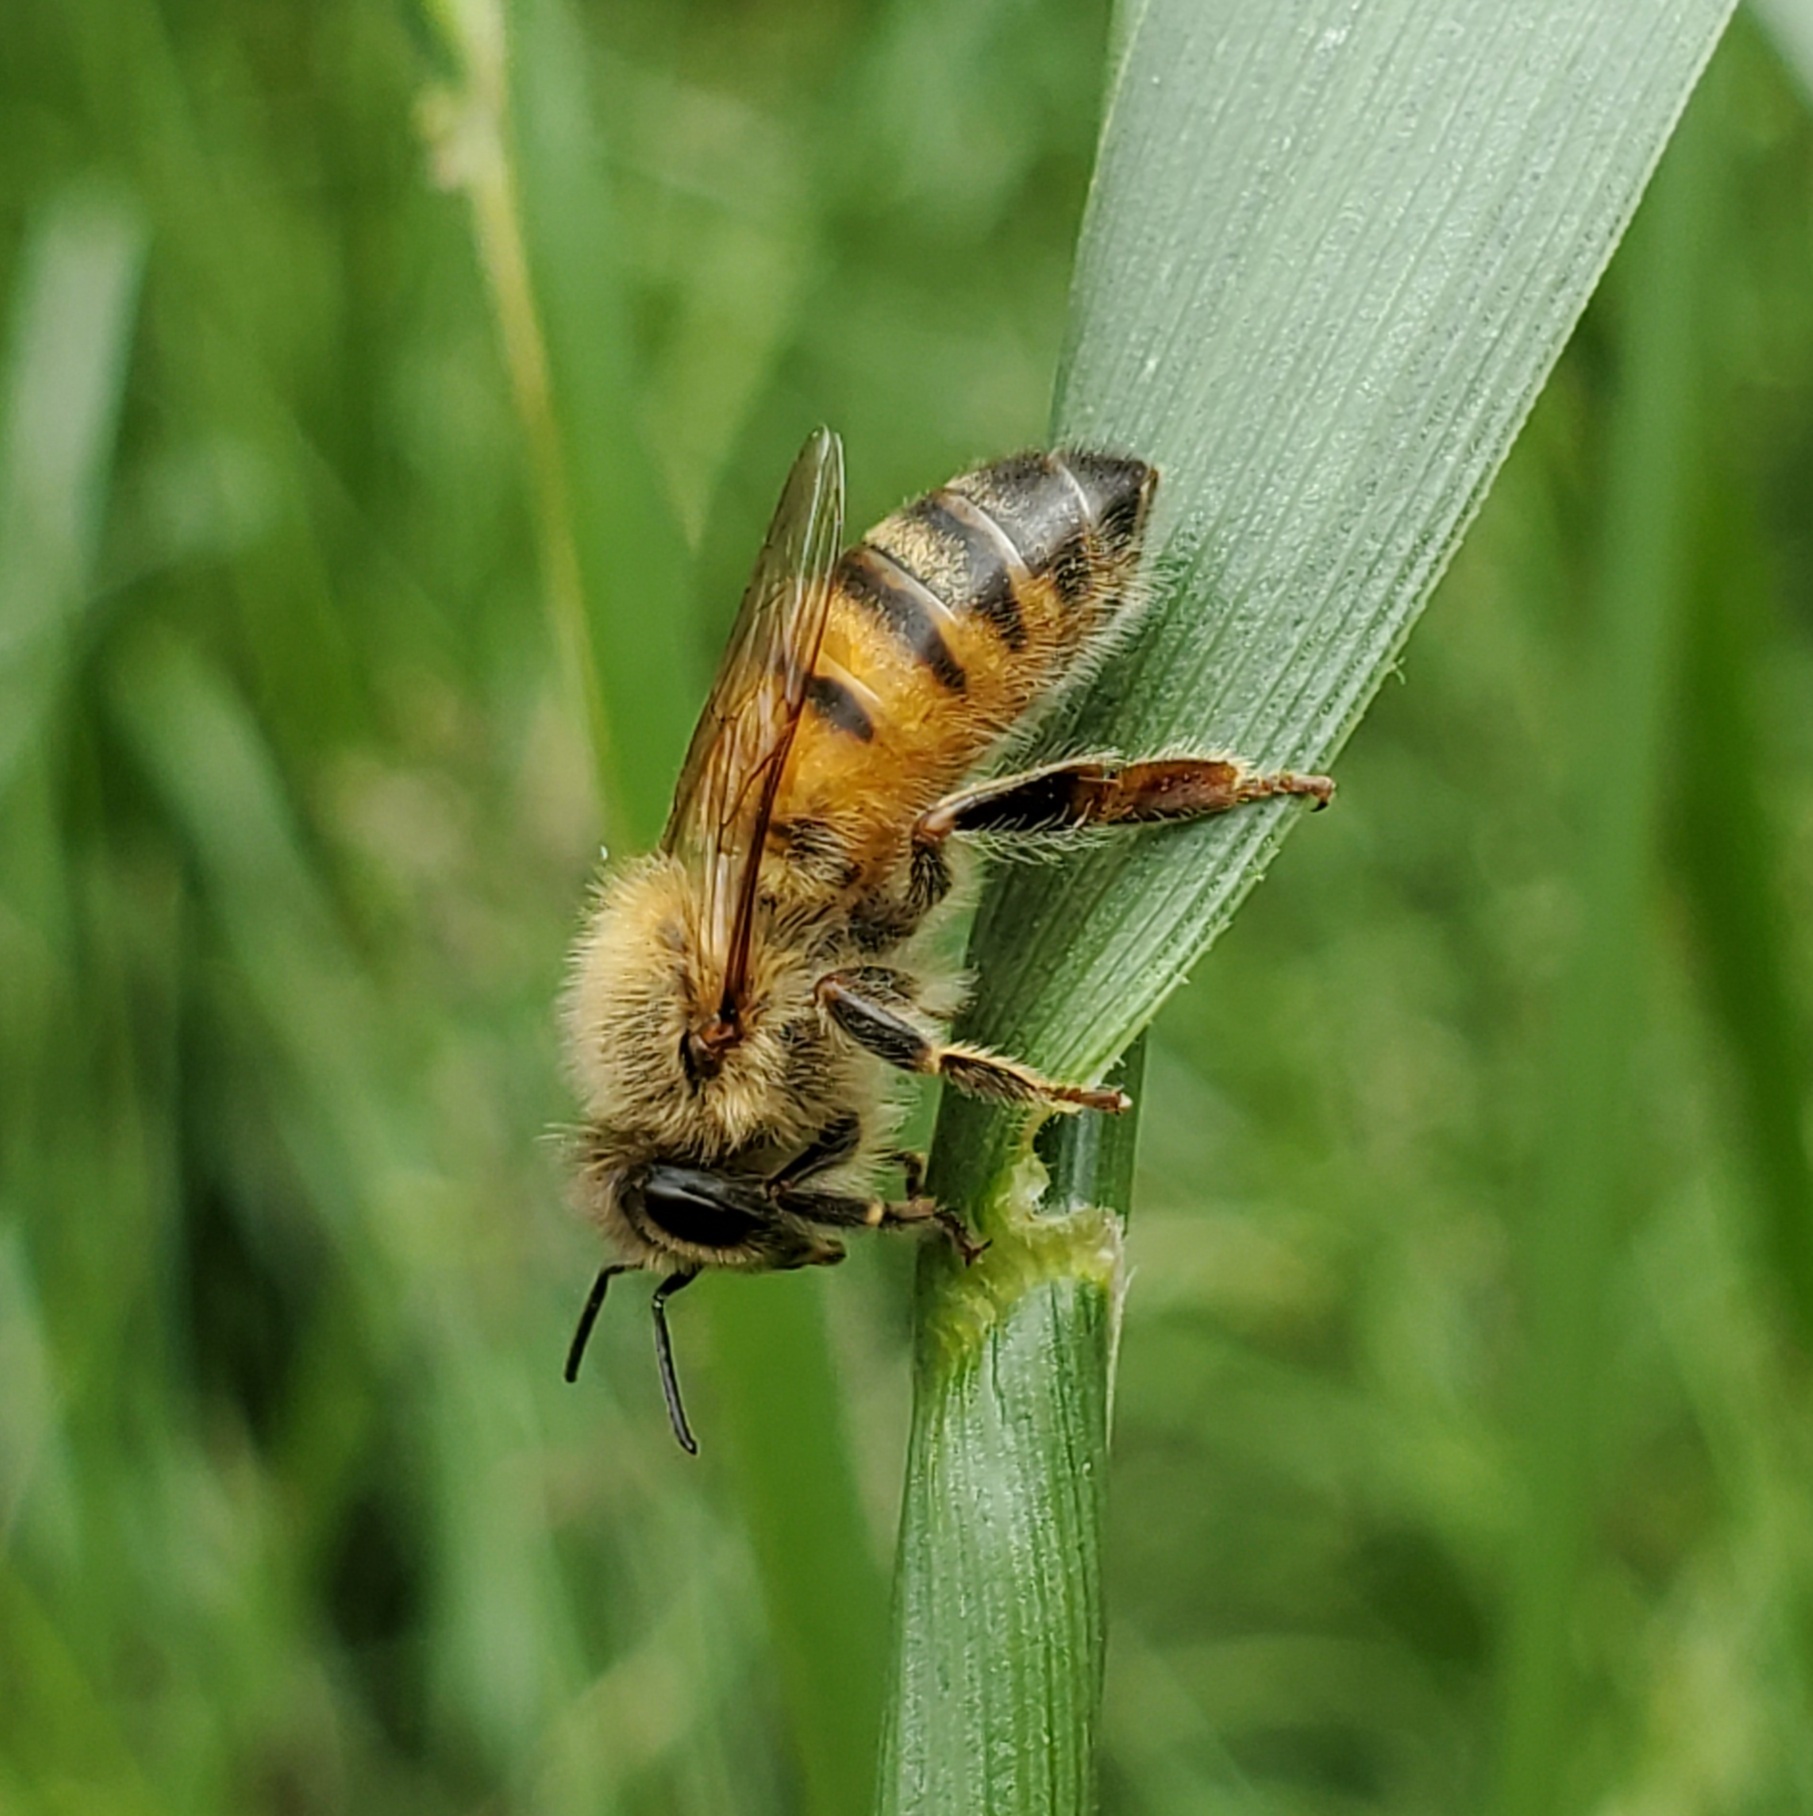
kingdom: Animalia
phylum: Arthropoda
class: Insecta
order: Hymenoptera
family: Apidae
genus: Apis
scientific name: Apis mellifera
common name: Honey bee
